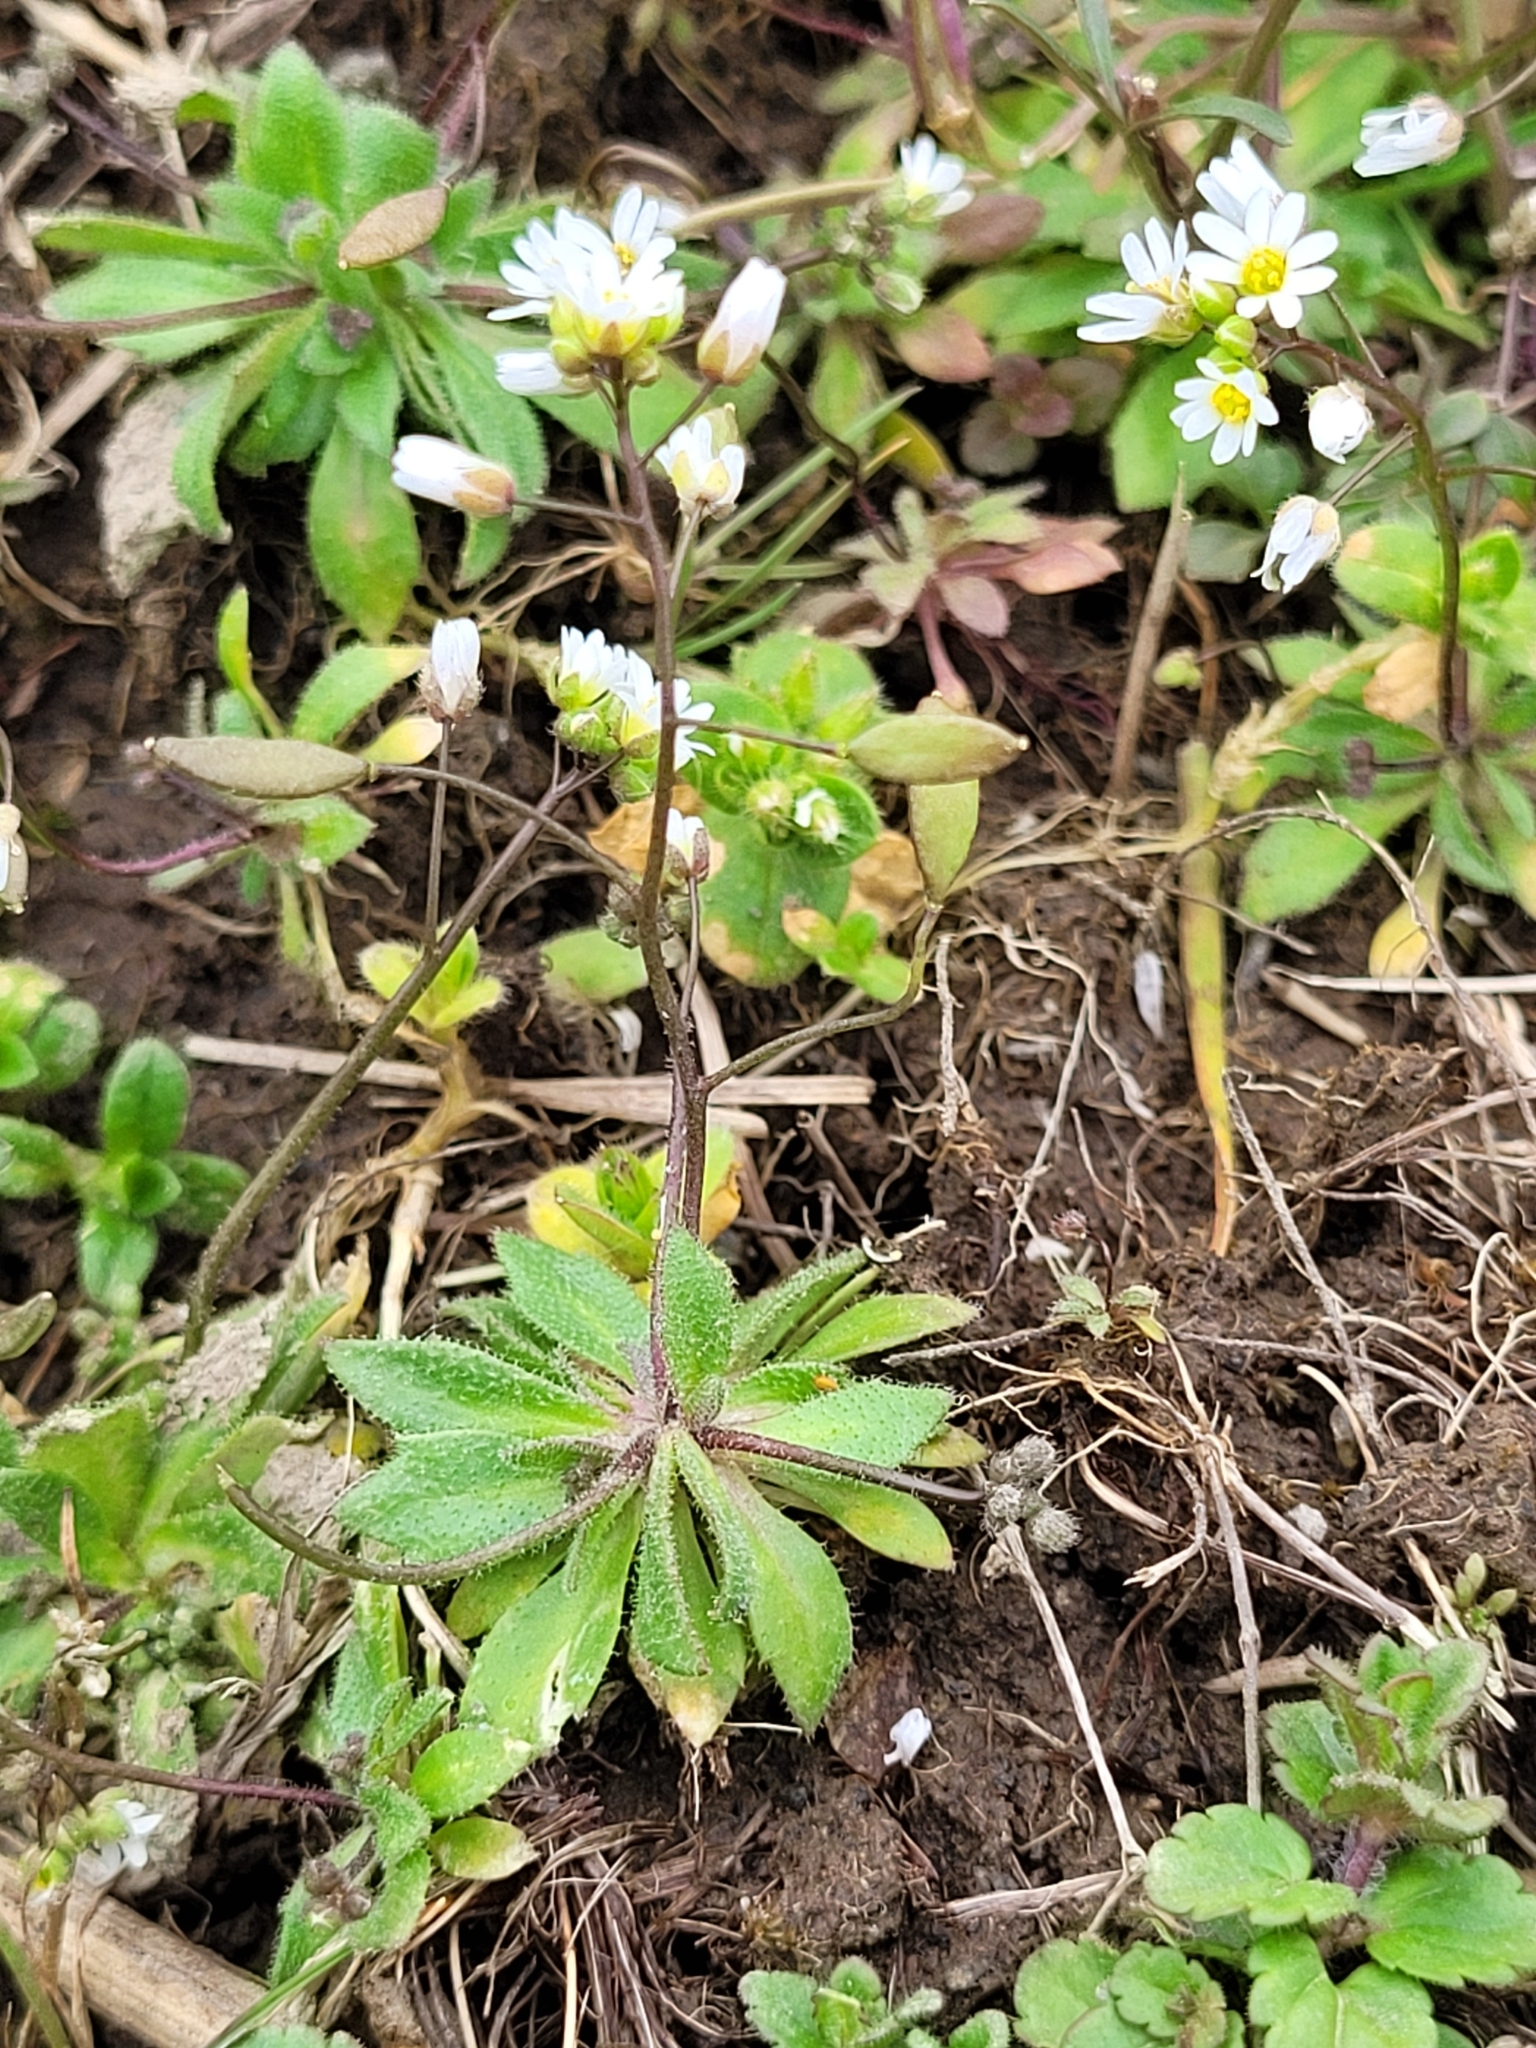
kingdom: Plantae
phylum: Tracheophyta
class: Magnoliopsida
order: Brassicales
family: Brassicaceae
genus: Draba
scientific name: Draba verna
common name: Spring draba
